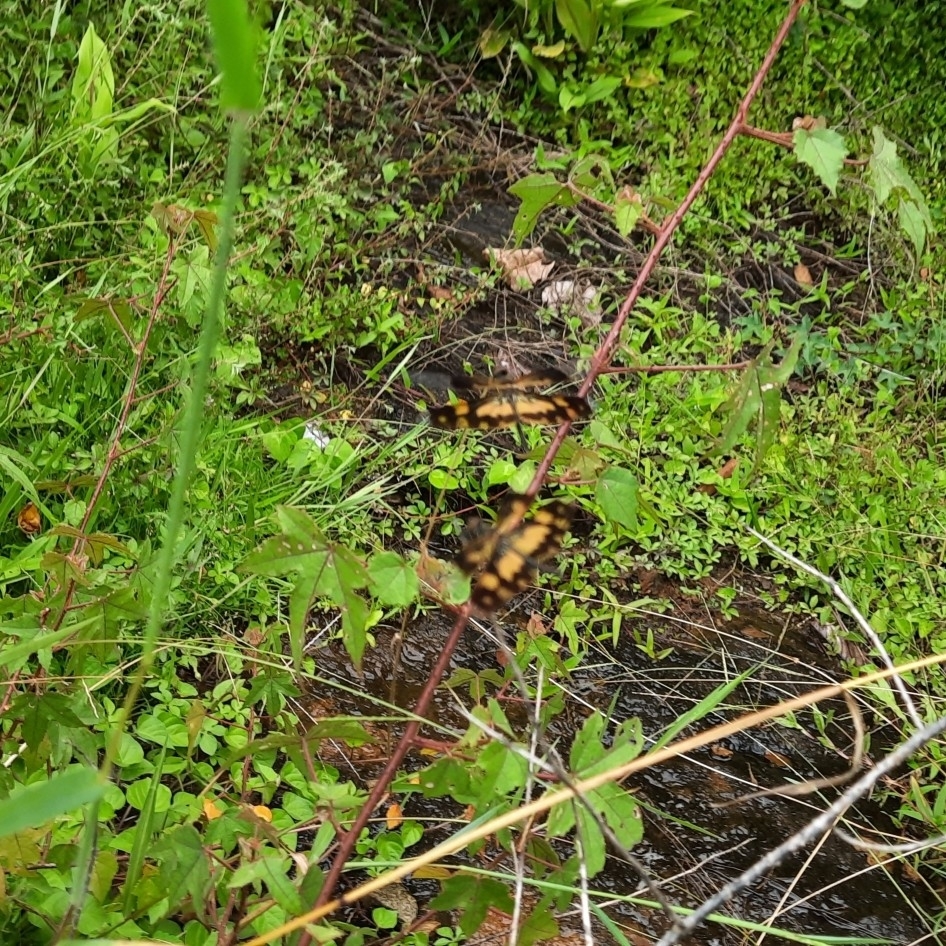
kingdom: Animalia
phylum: Arthropoda
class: Insecta
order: Odonata
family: Libellulidae
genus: Rhyothemis
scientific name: Rhyothemis variegata
